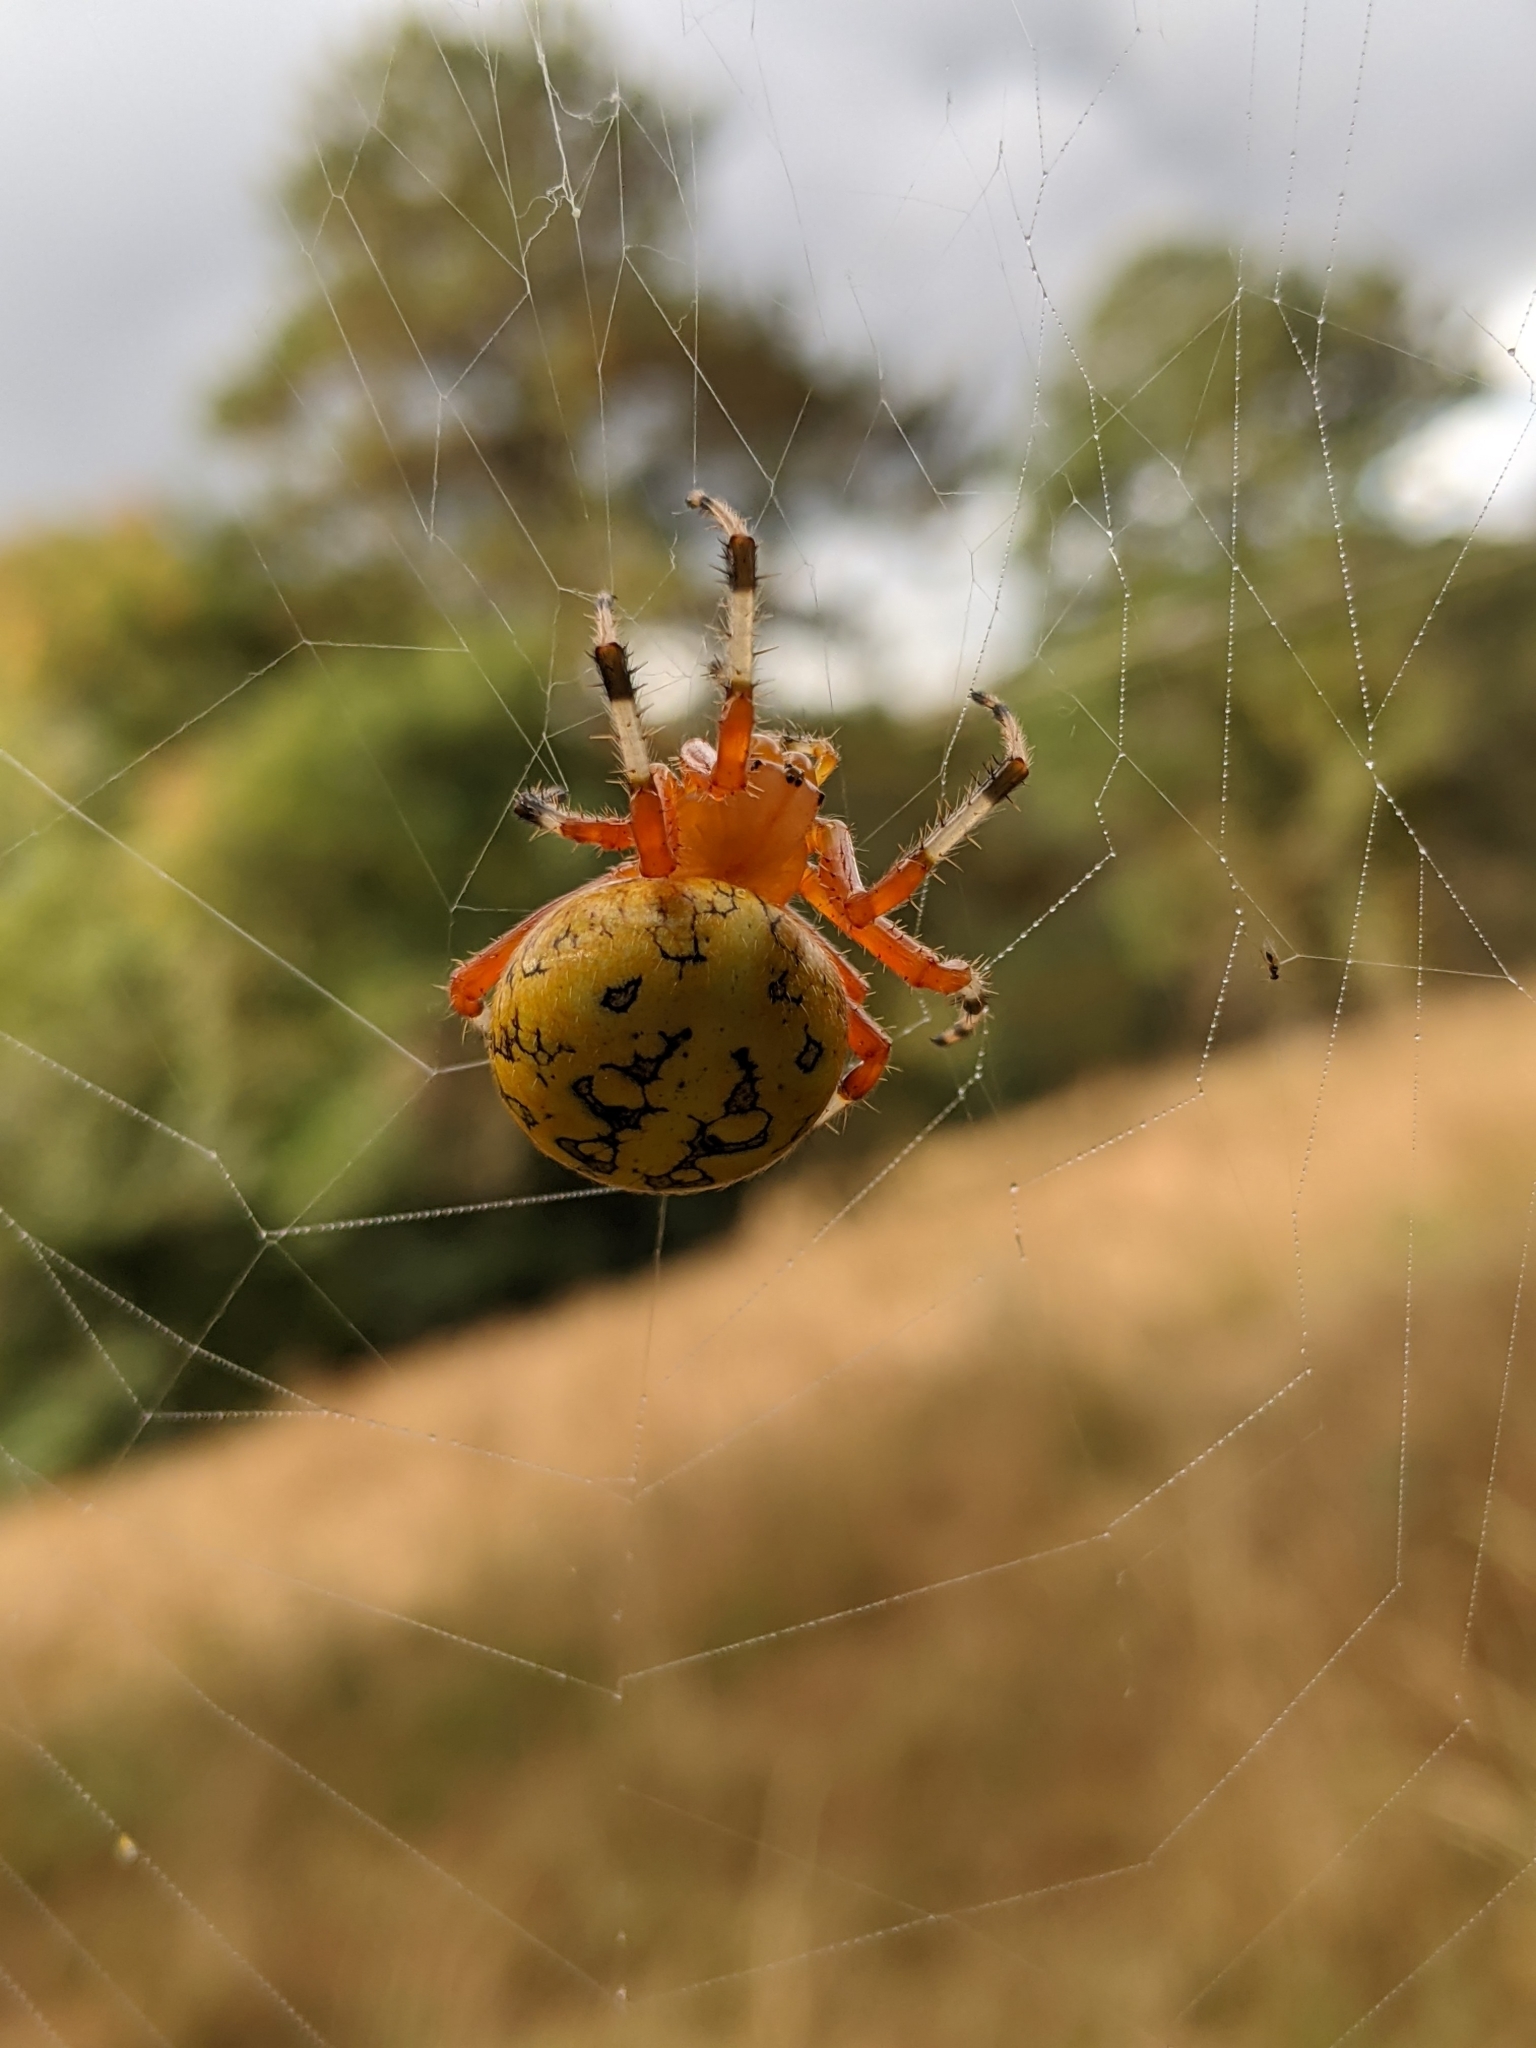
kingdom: Animalia
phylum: Arthropoda
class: Arachnida
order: Araneae
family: Araneidae
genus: Araneus
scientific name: Araneus marmoreus
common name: Marbled orbweaver
